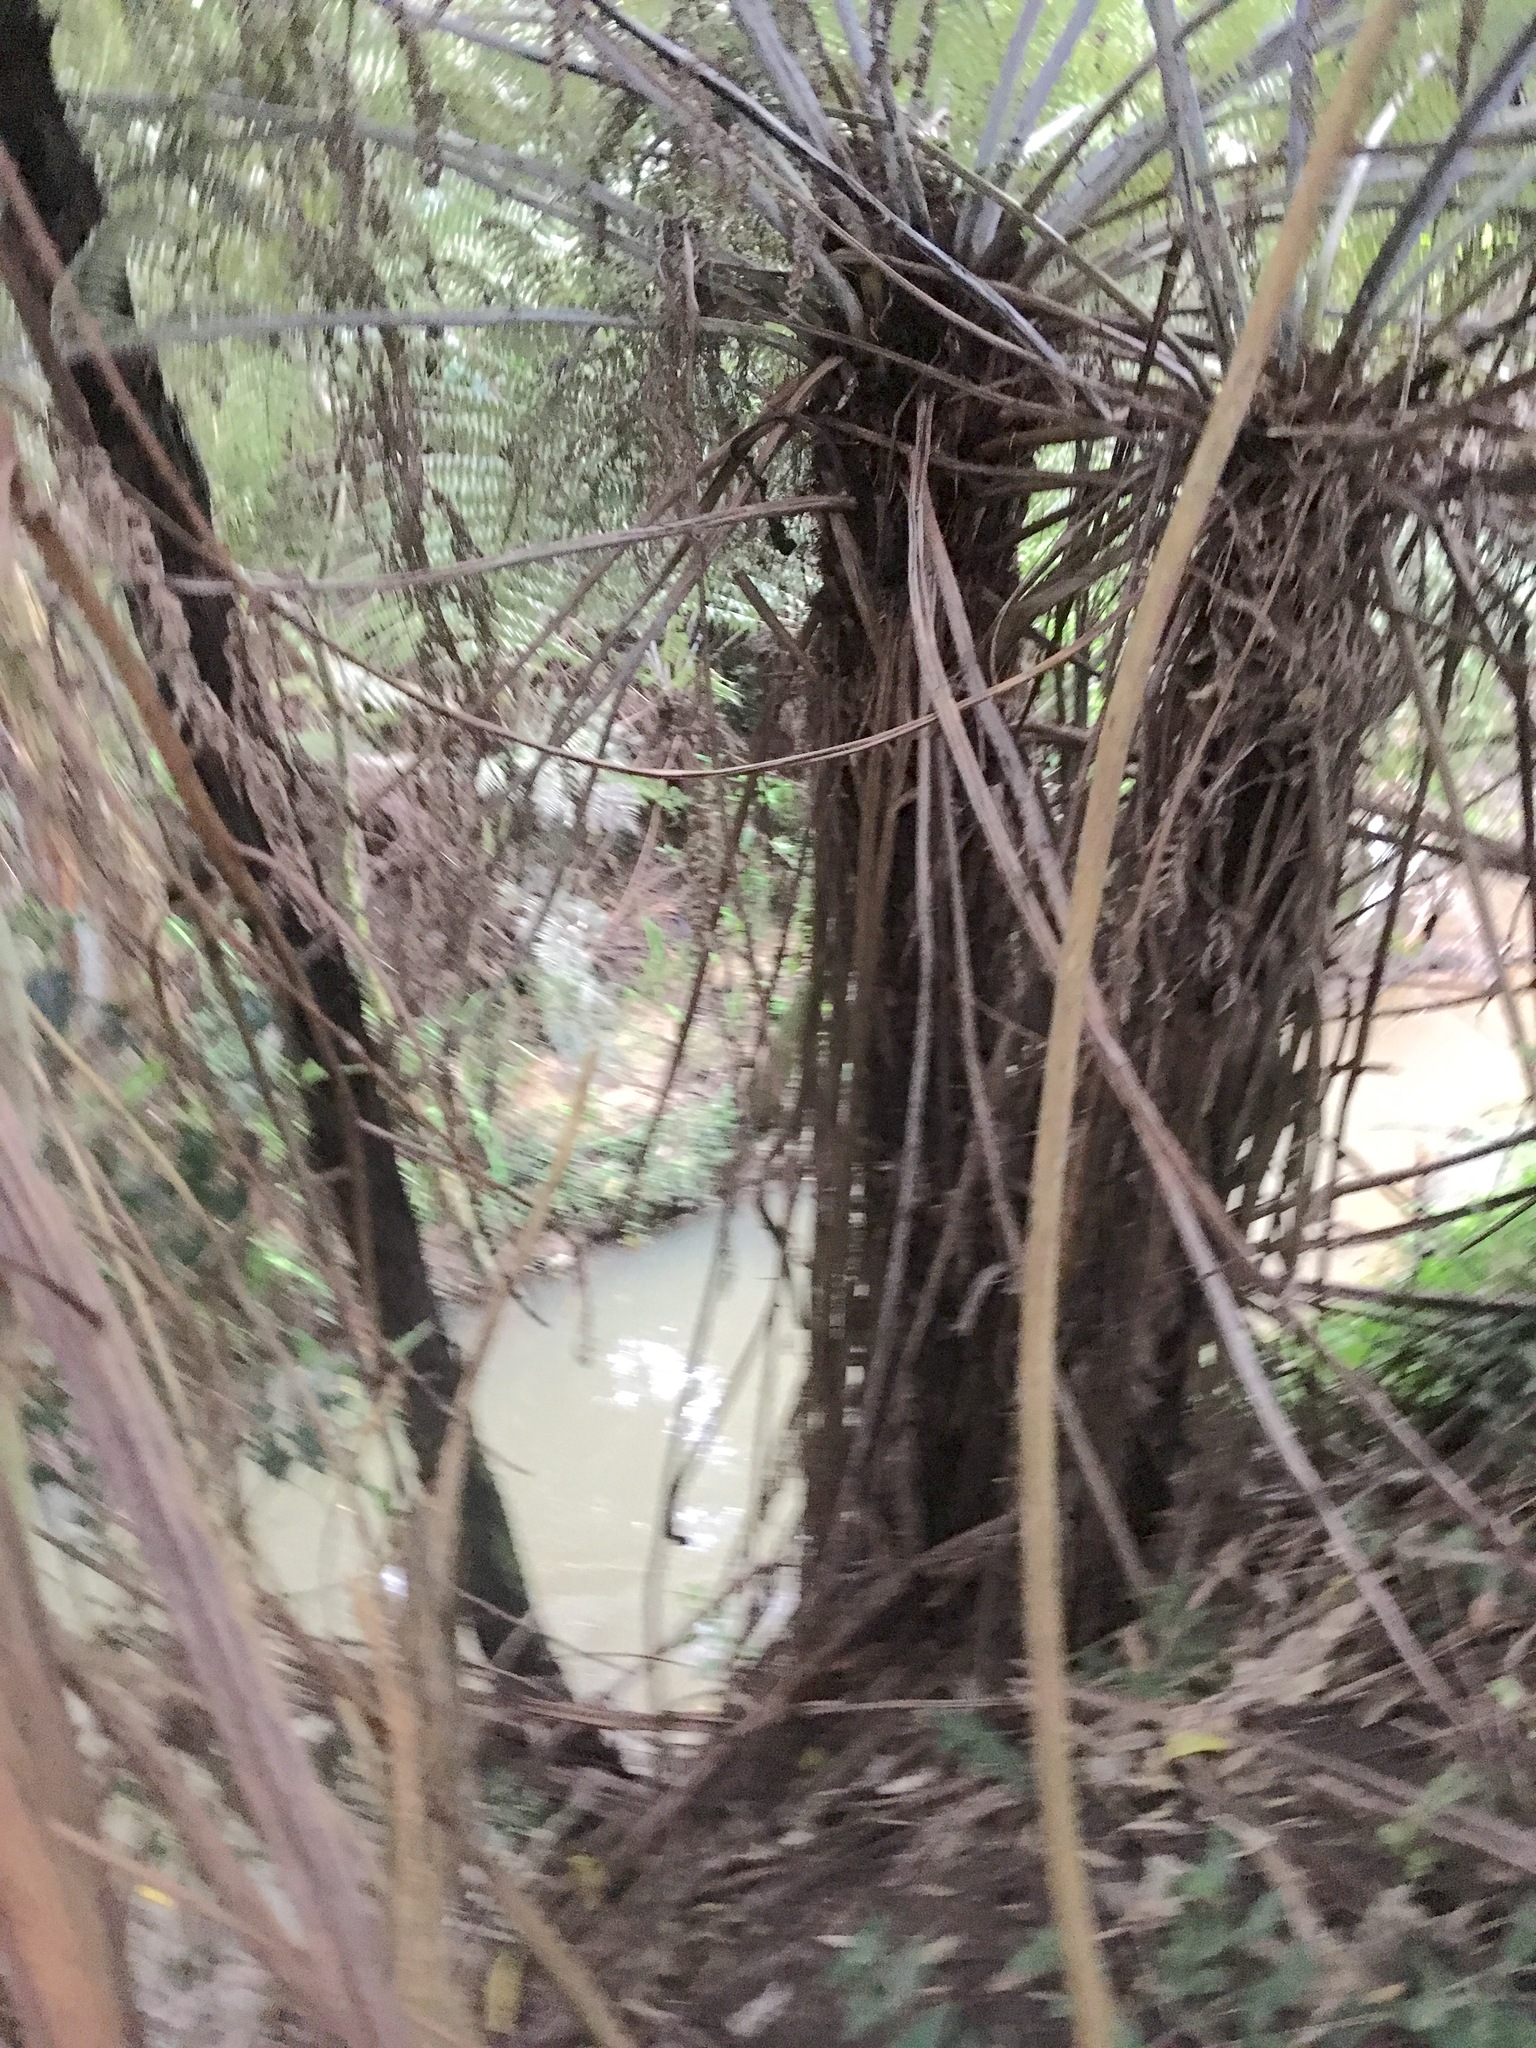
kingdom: Plantae
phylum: Tracheophyta
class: Polypodiopsida
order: Cyatheales
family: Cyatheaceae
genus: Alsophila
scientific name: Alsophila dealbata
